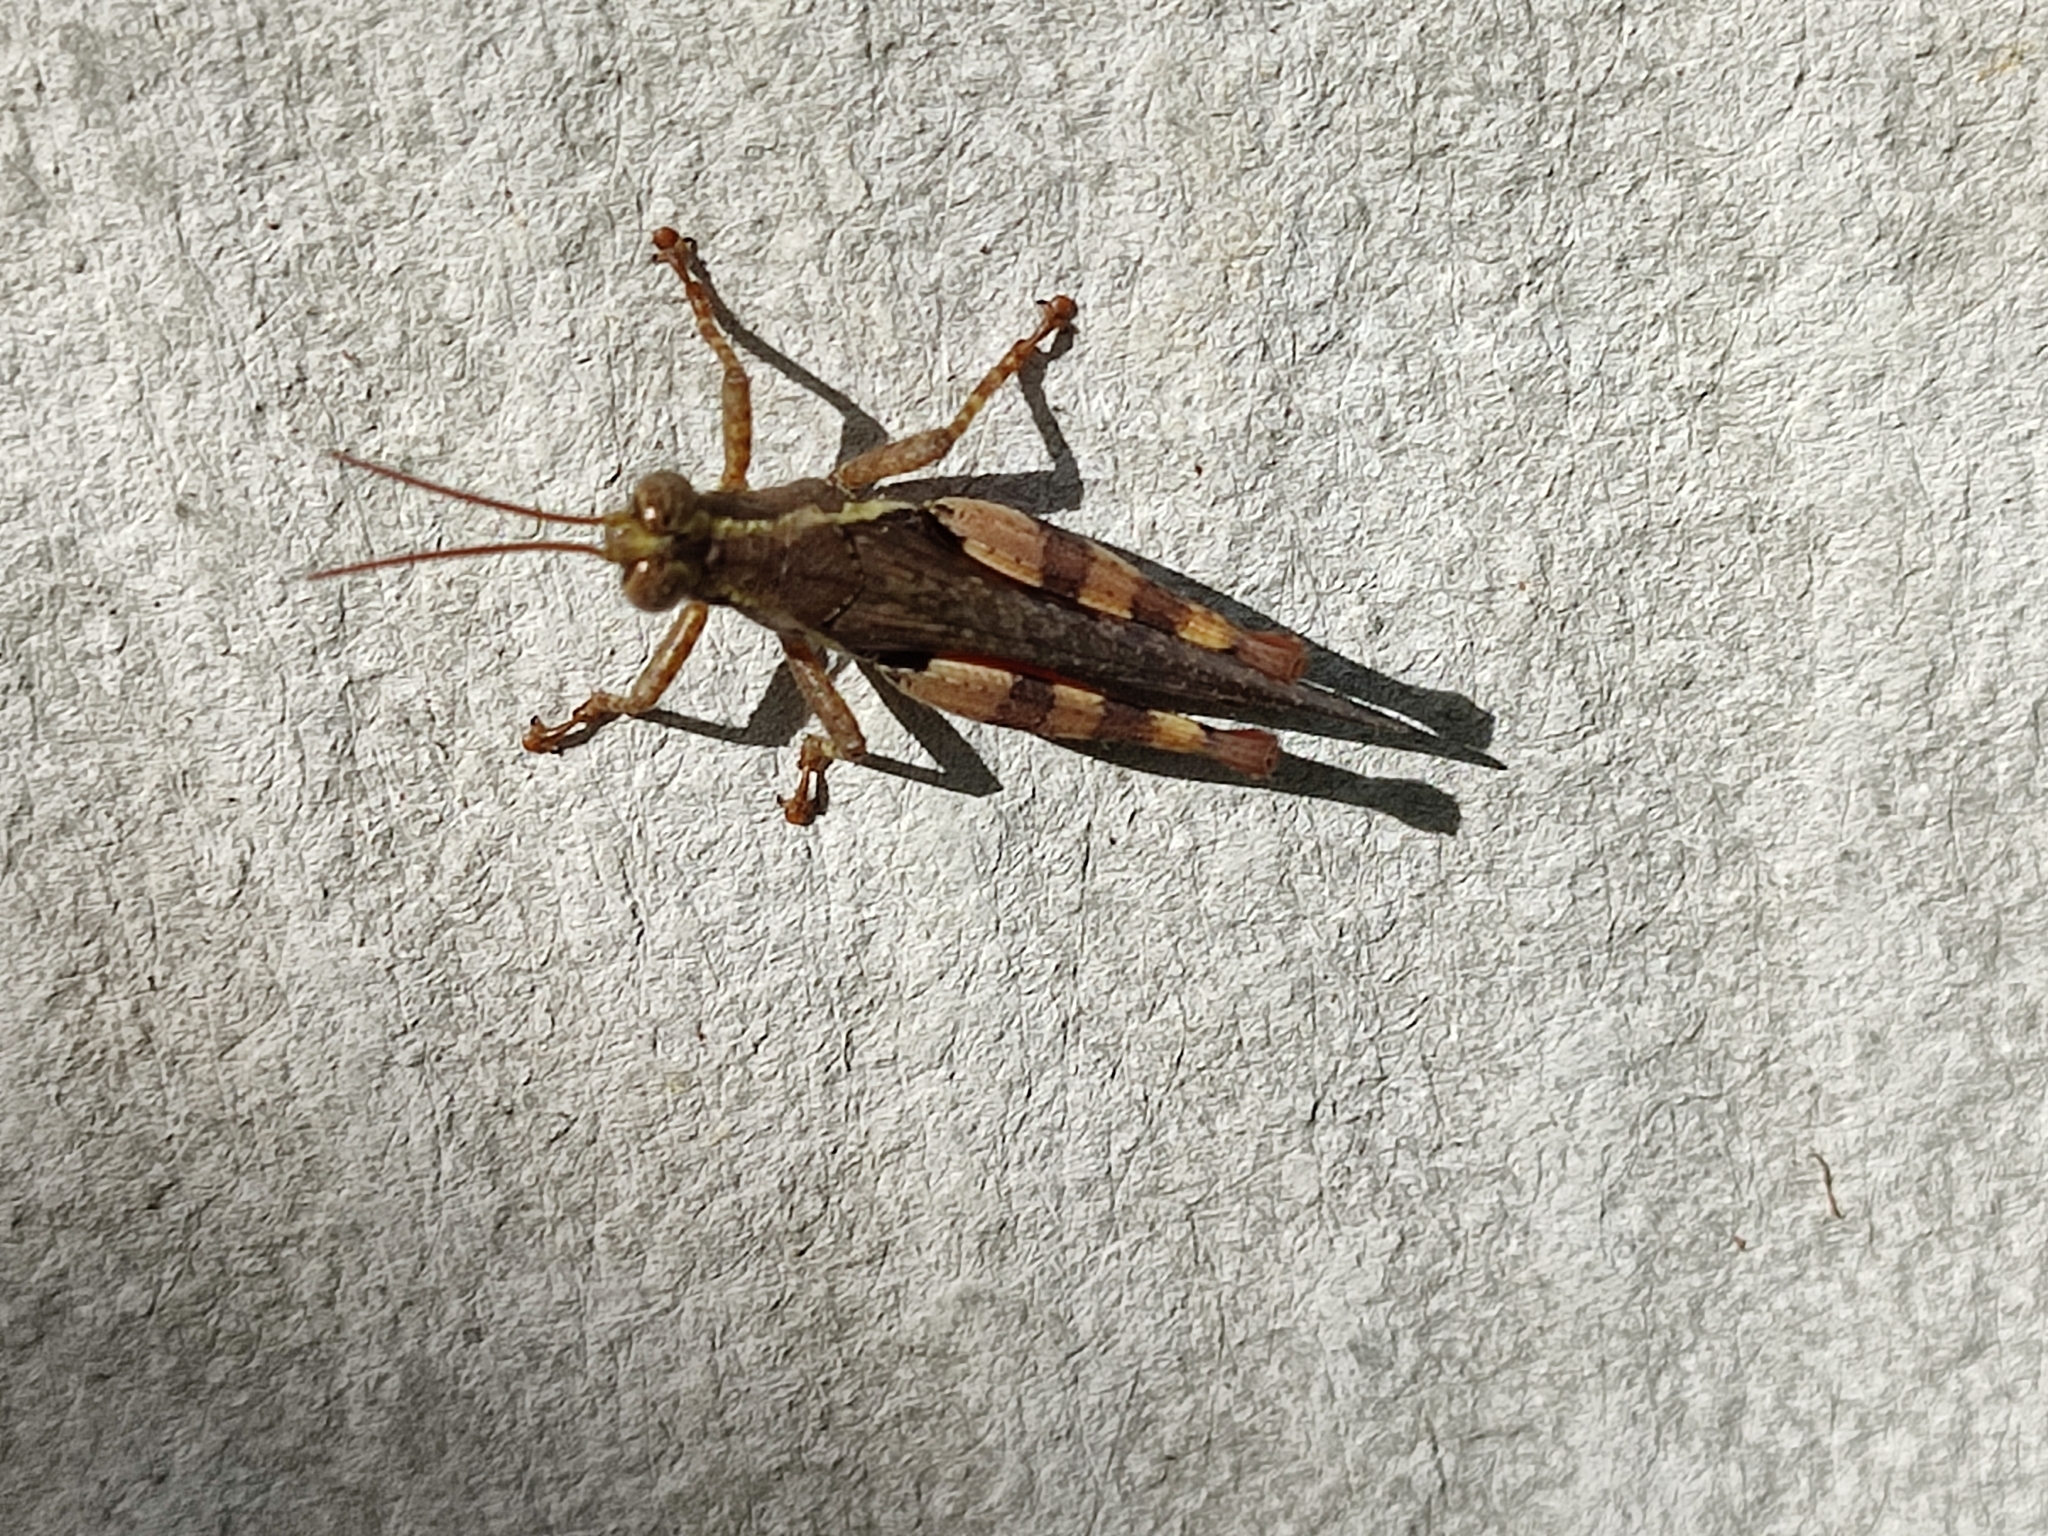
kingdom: Animalia
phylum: Arthropoda
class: Insecta
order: Orthoptera
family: Acrididae
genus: Xenocatantops
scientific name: Xenocatantops humile
